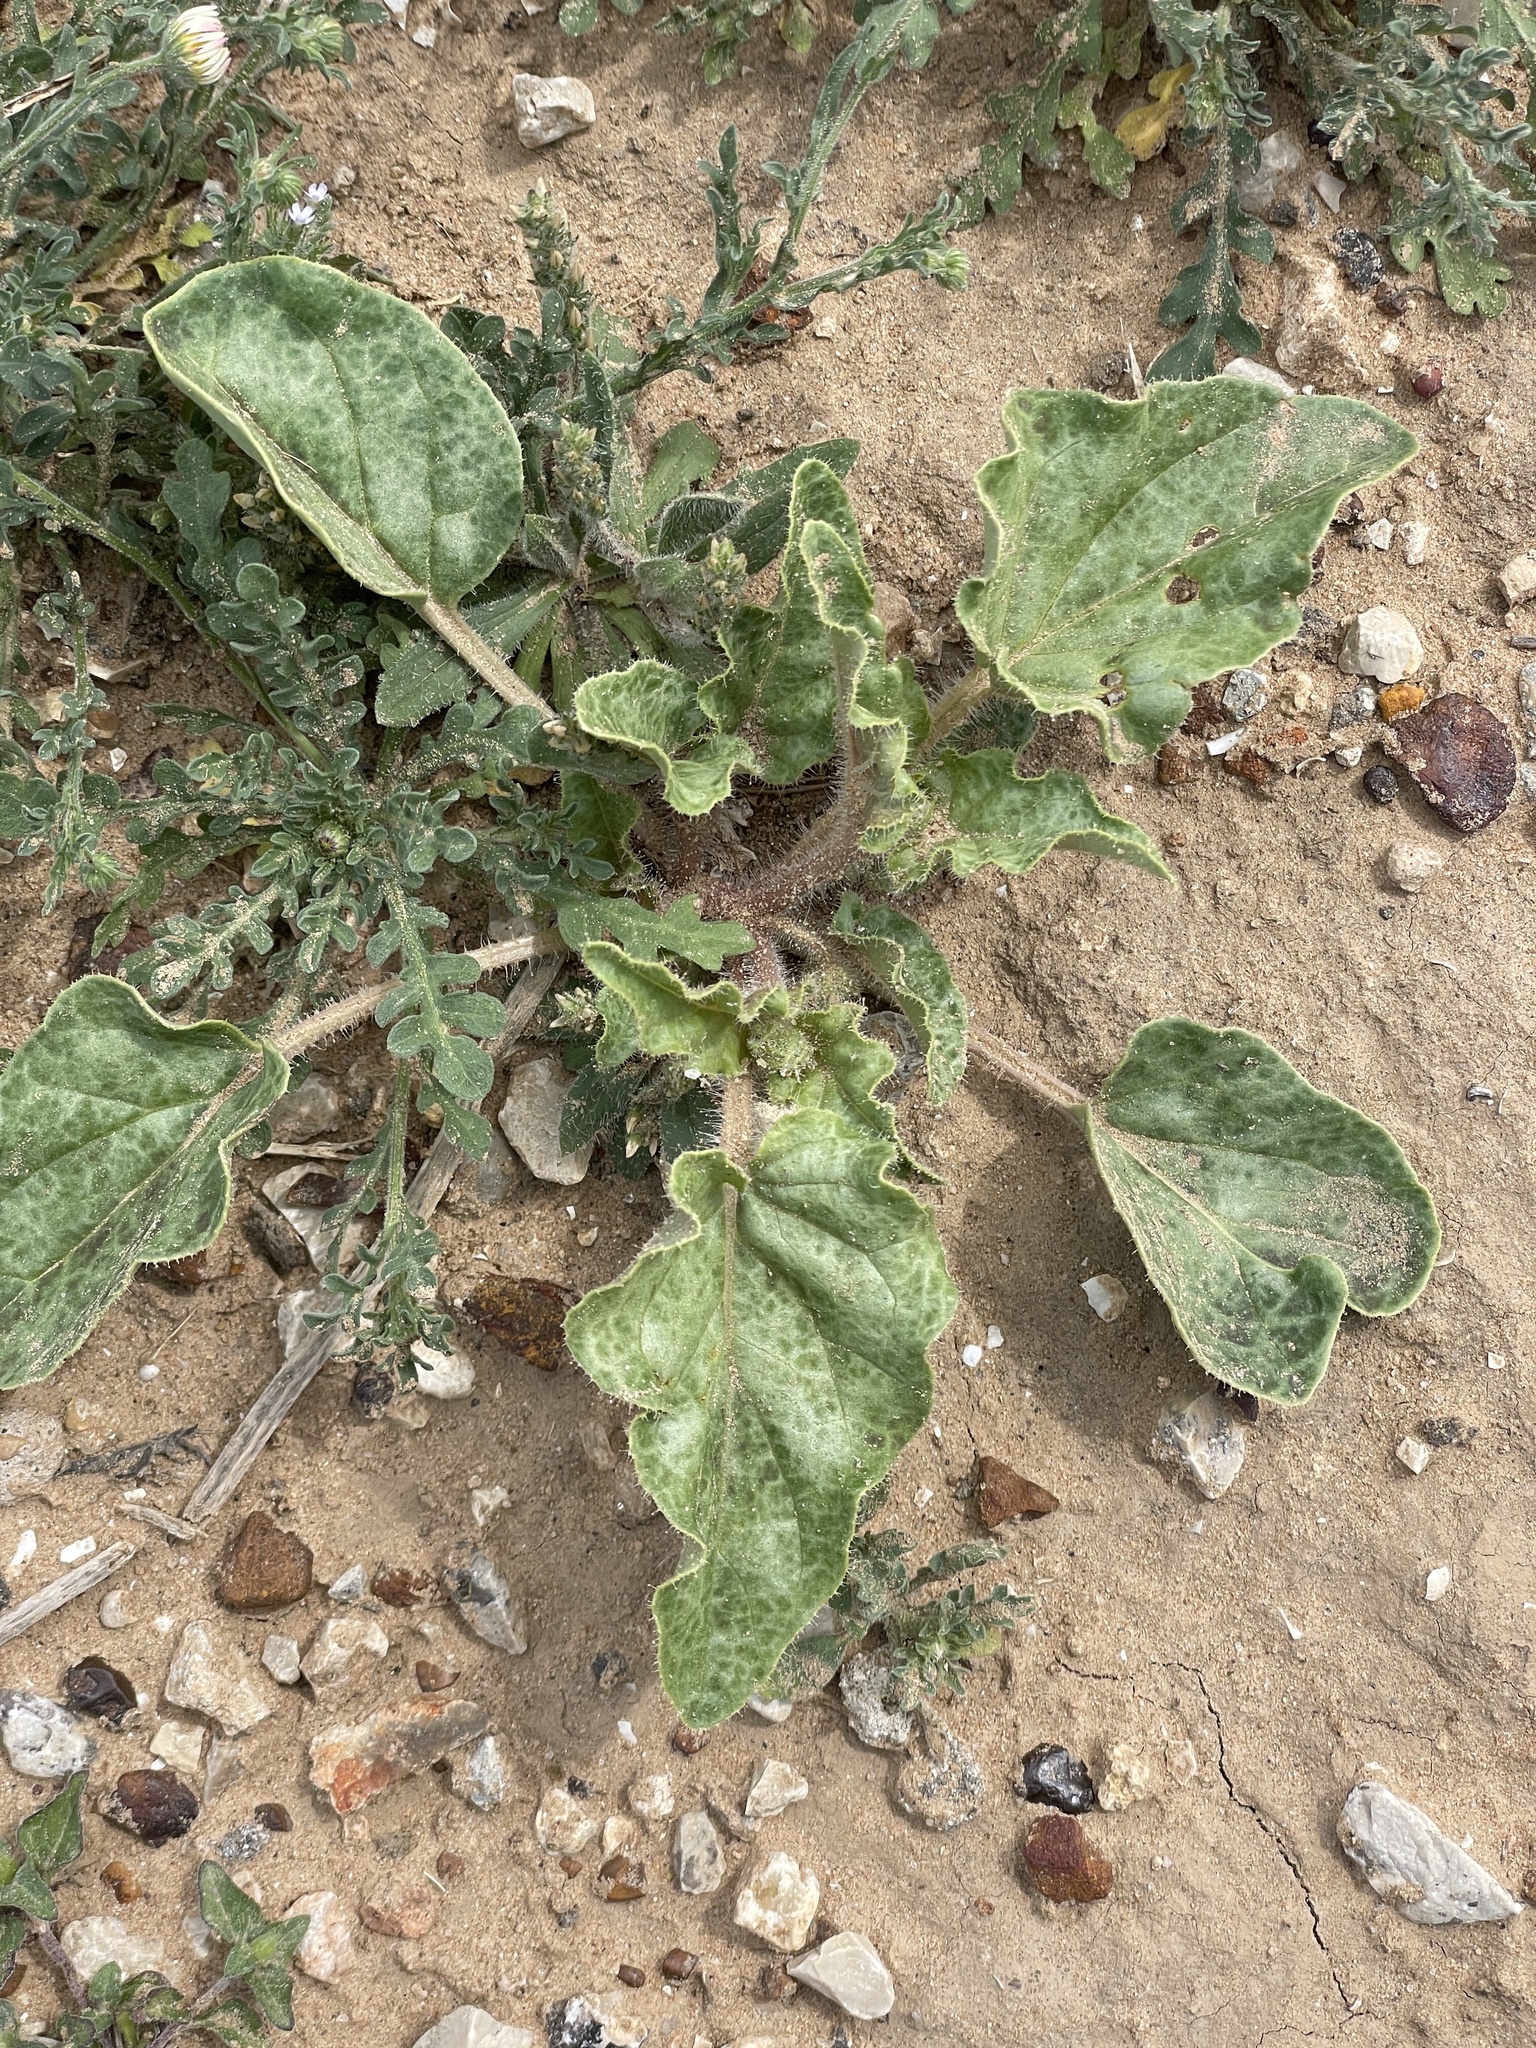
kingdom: Plantae
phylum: Tracheophyta
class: Magnoliopsida
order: Caryophyllales
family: Nyctaginaceae
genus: Nyctaginia
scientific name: Nyctaginia capitata
